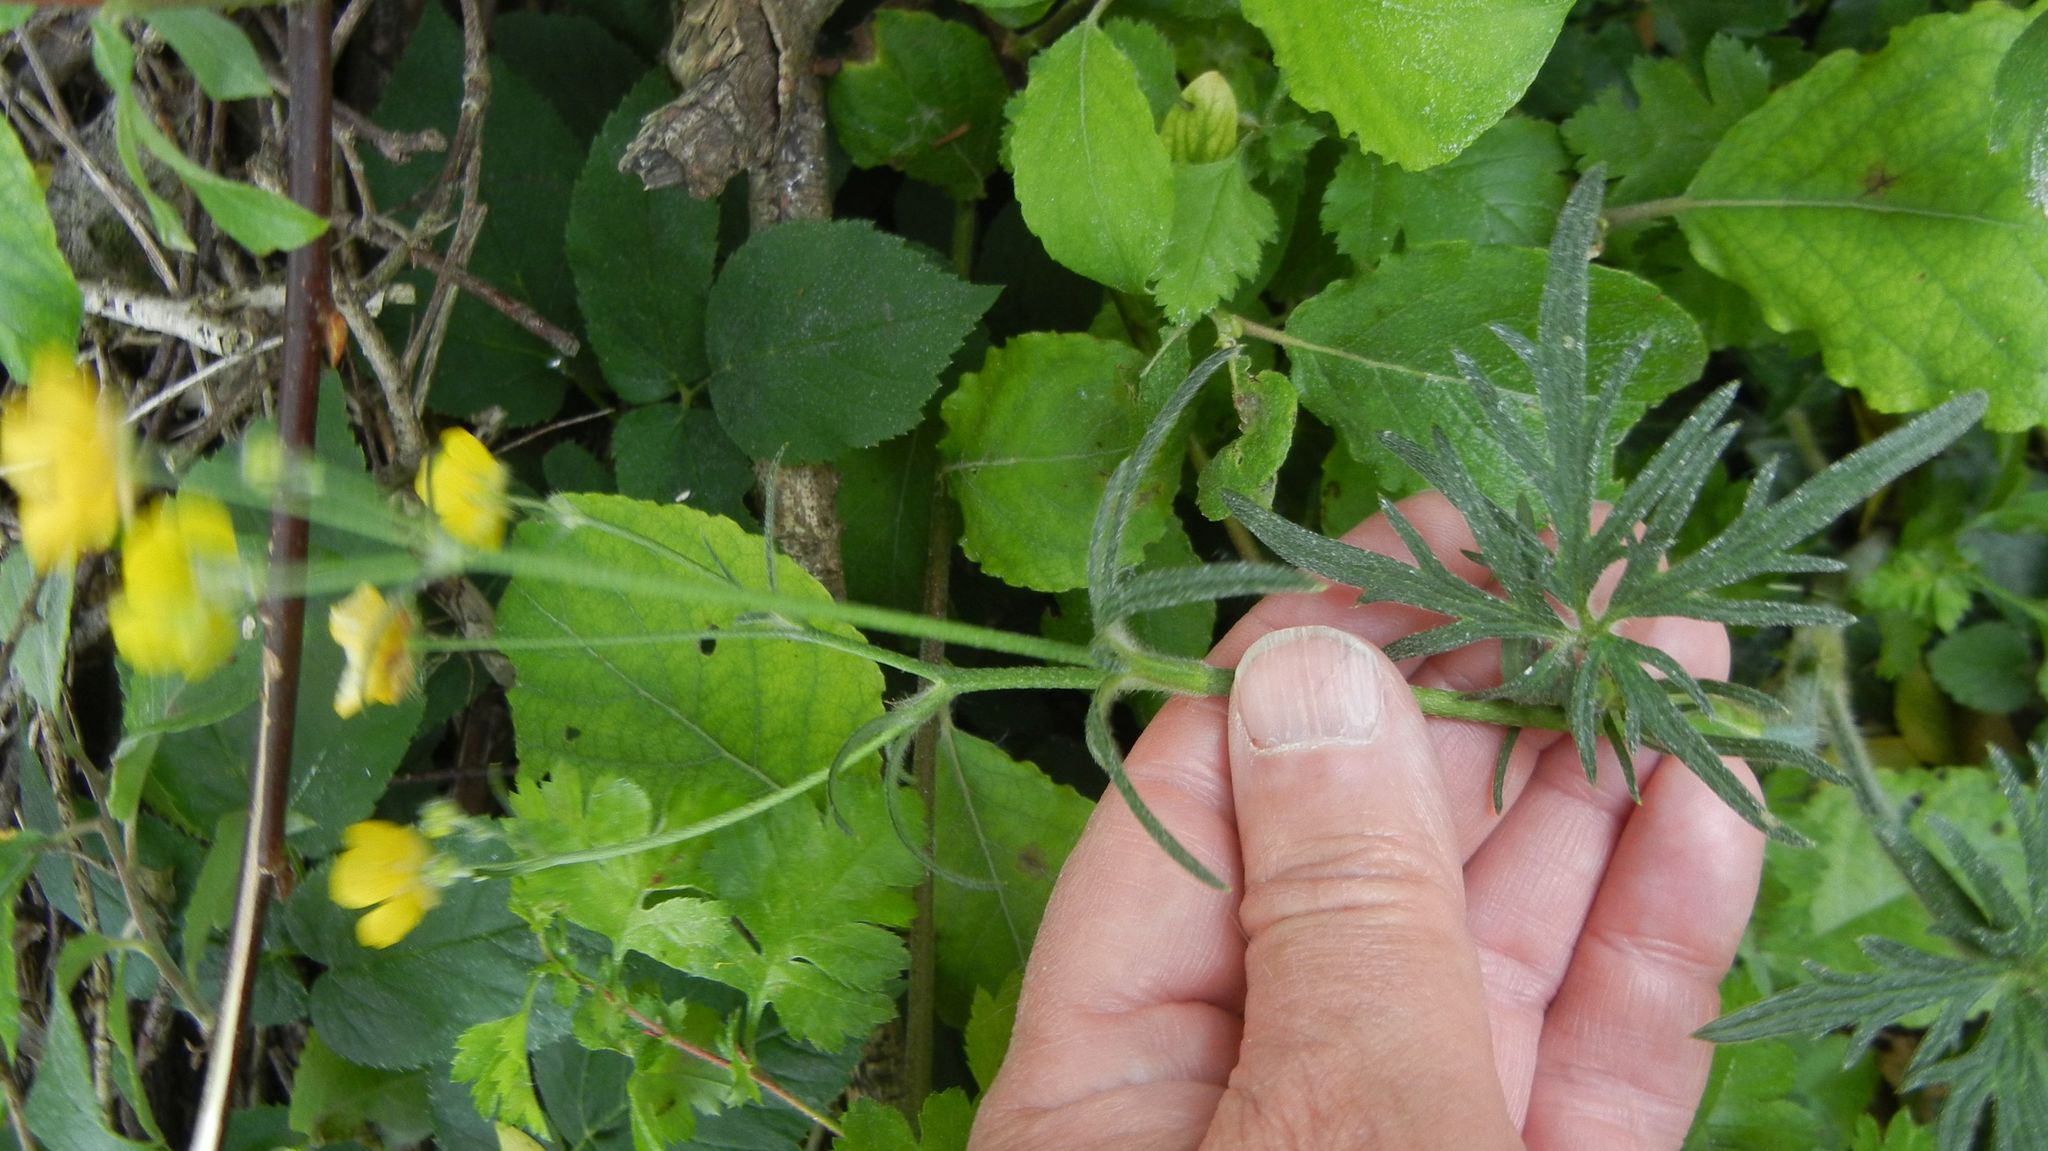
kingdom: Plantae
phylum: Tracheophyta
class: Magnoliopsida
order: Ranunculales
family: Ranunculaceae
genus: Ranunculus
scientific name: Ranunculus acris
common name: Meadow buttercup
